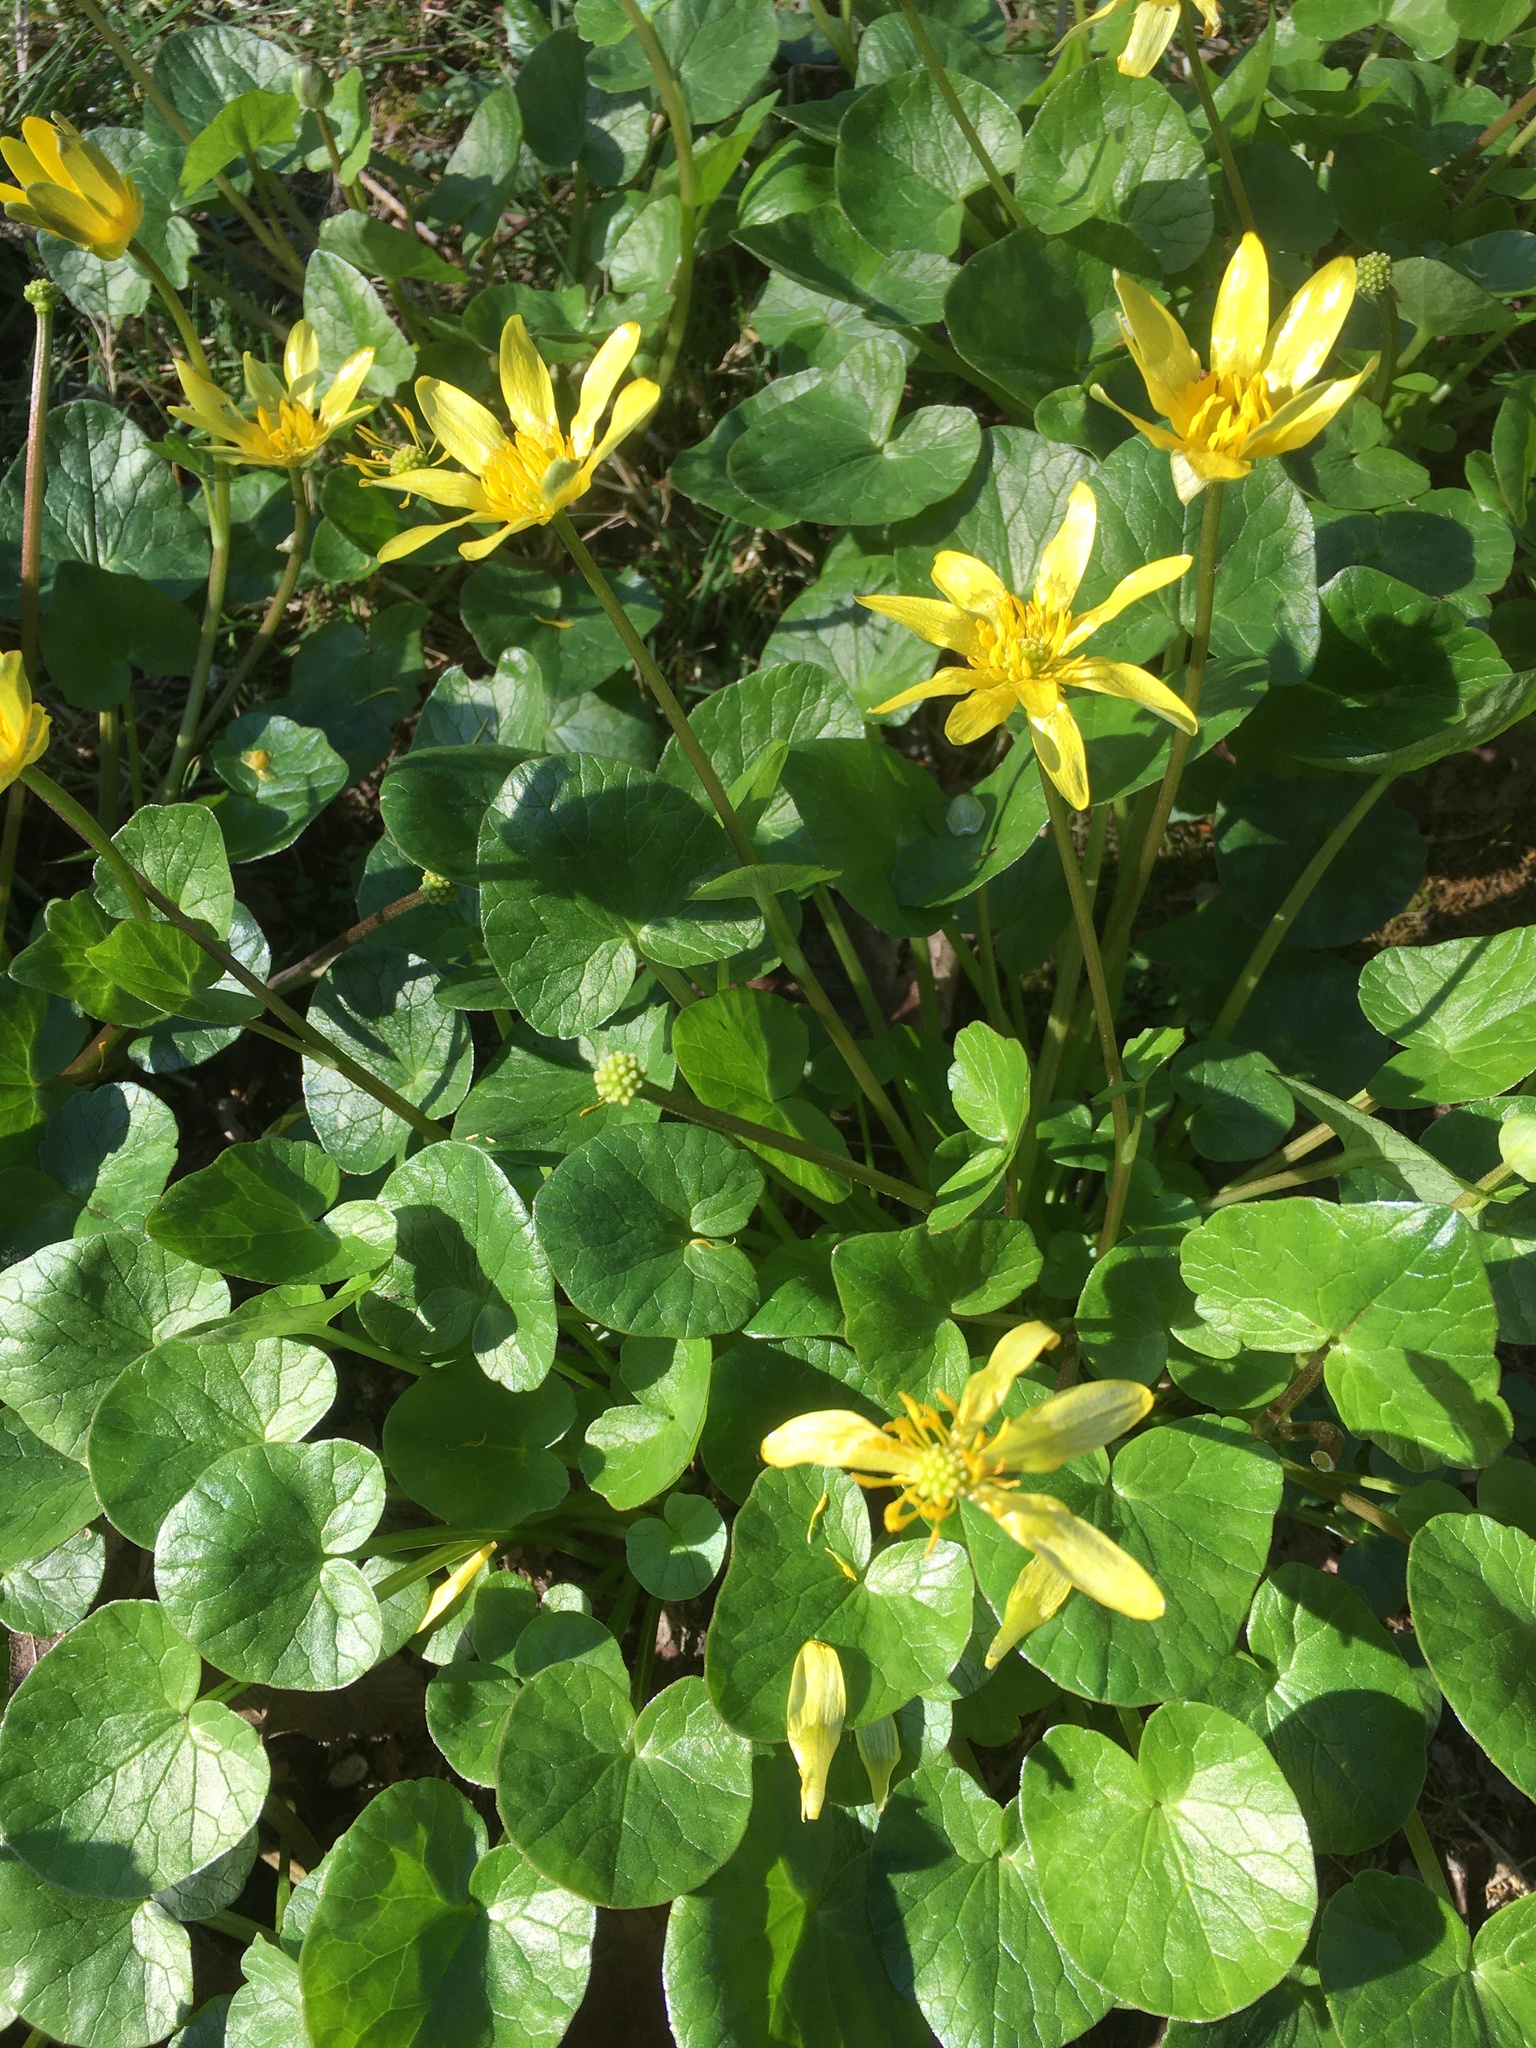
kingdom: Plantae
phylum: Tracheophyta
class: Magnoliopsida
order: Ranunculales
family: Ranunculaceae
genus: Ficaria
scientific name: Ficaria verna
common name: Lesser celandine
